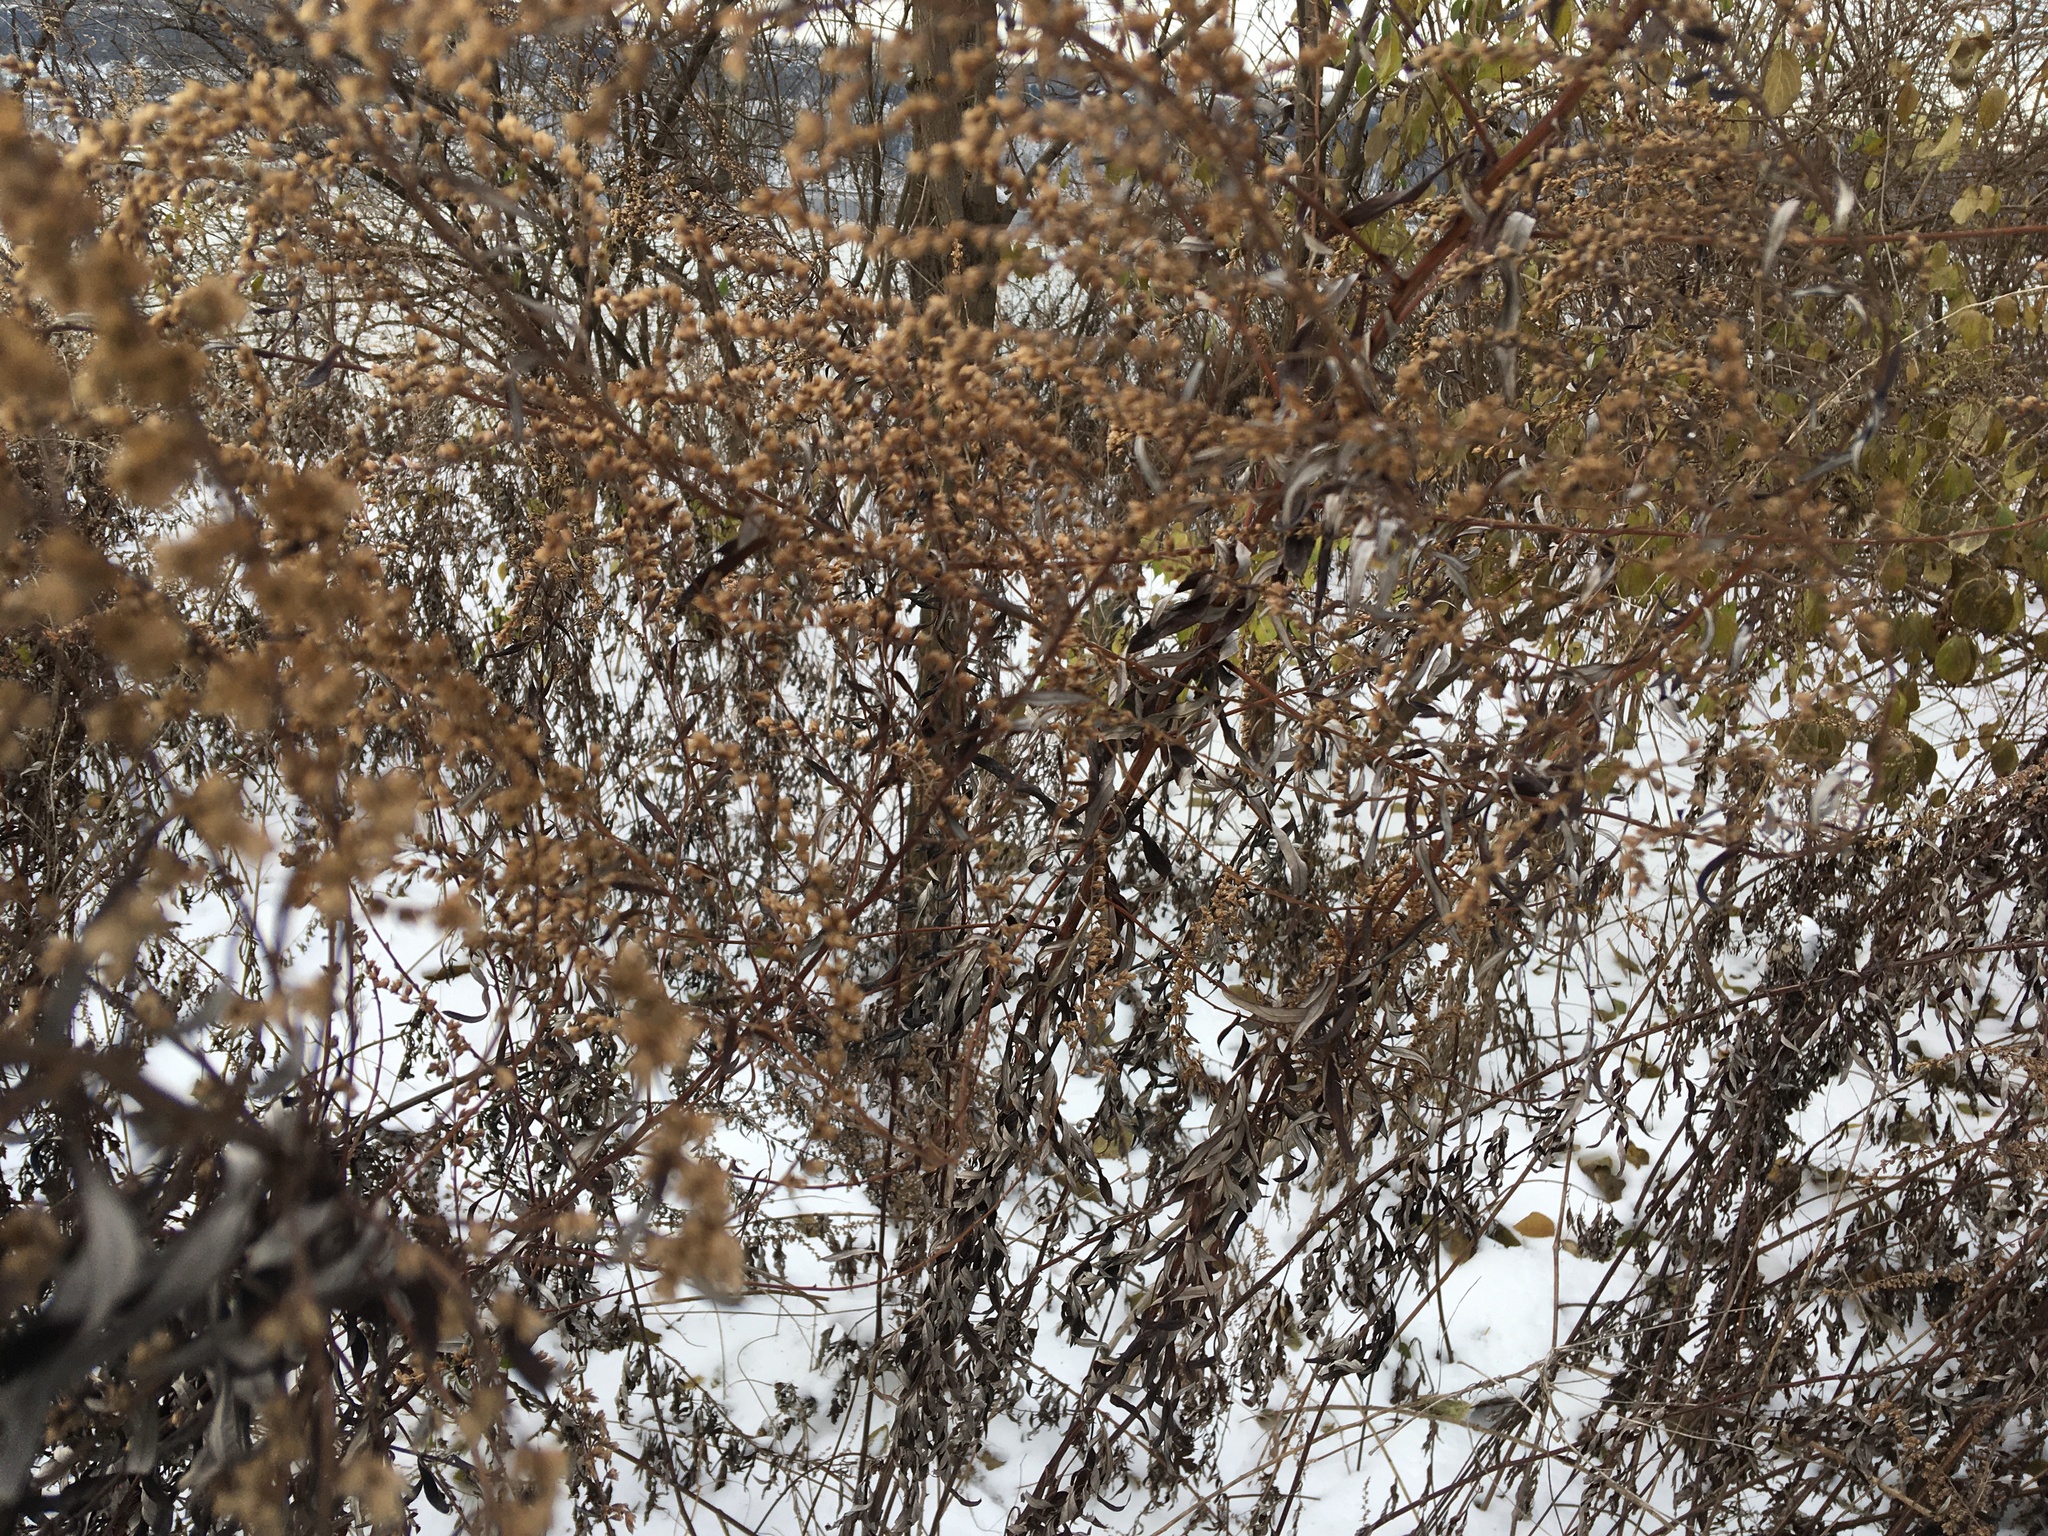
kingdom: Plantae
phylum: Tracheophyta
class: Magnoliopsida
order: Asterales
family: Asteraceae
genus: Artemisia
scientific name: Artemisia vulgaris
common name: Mugwort
